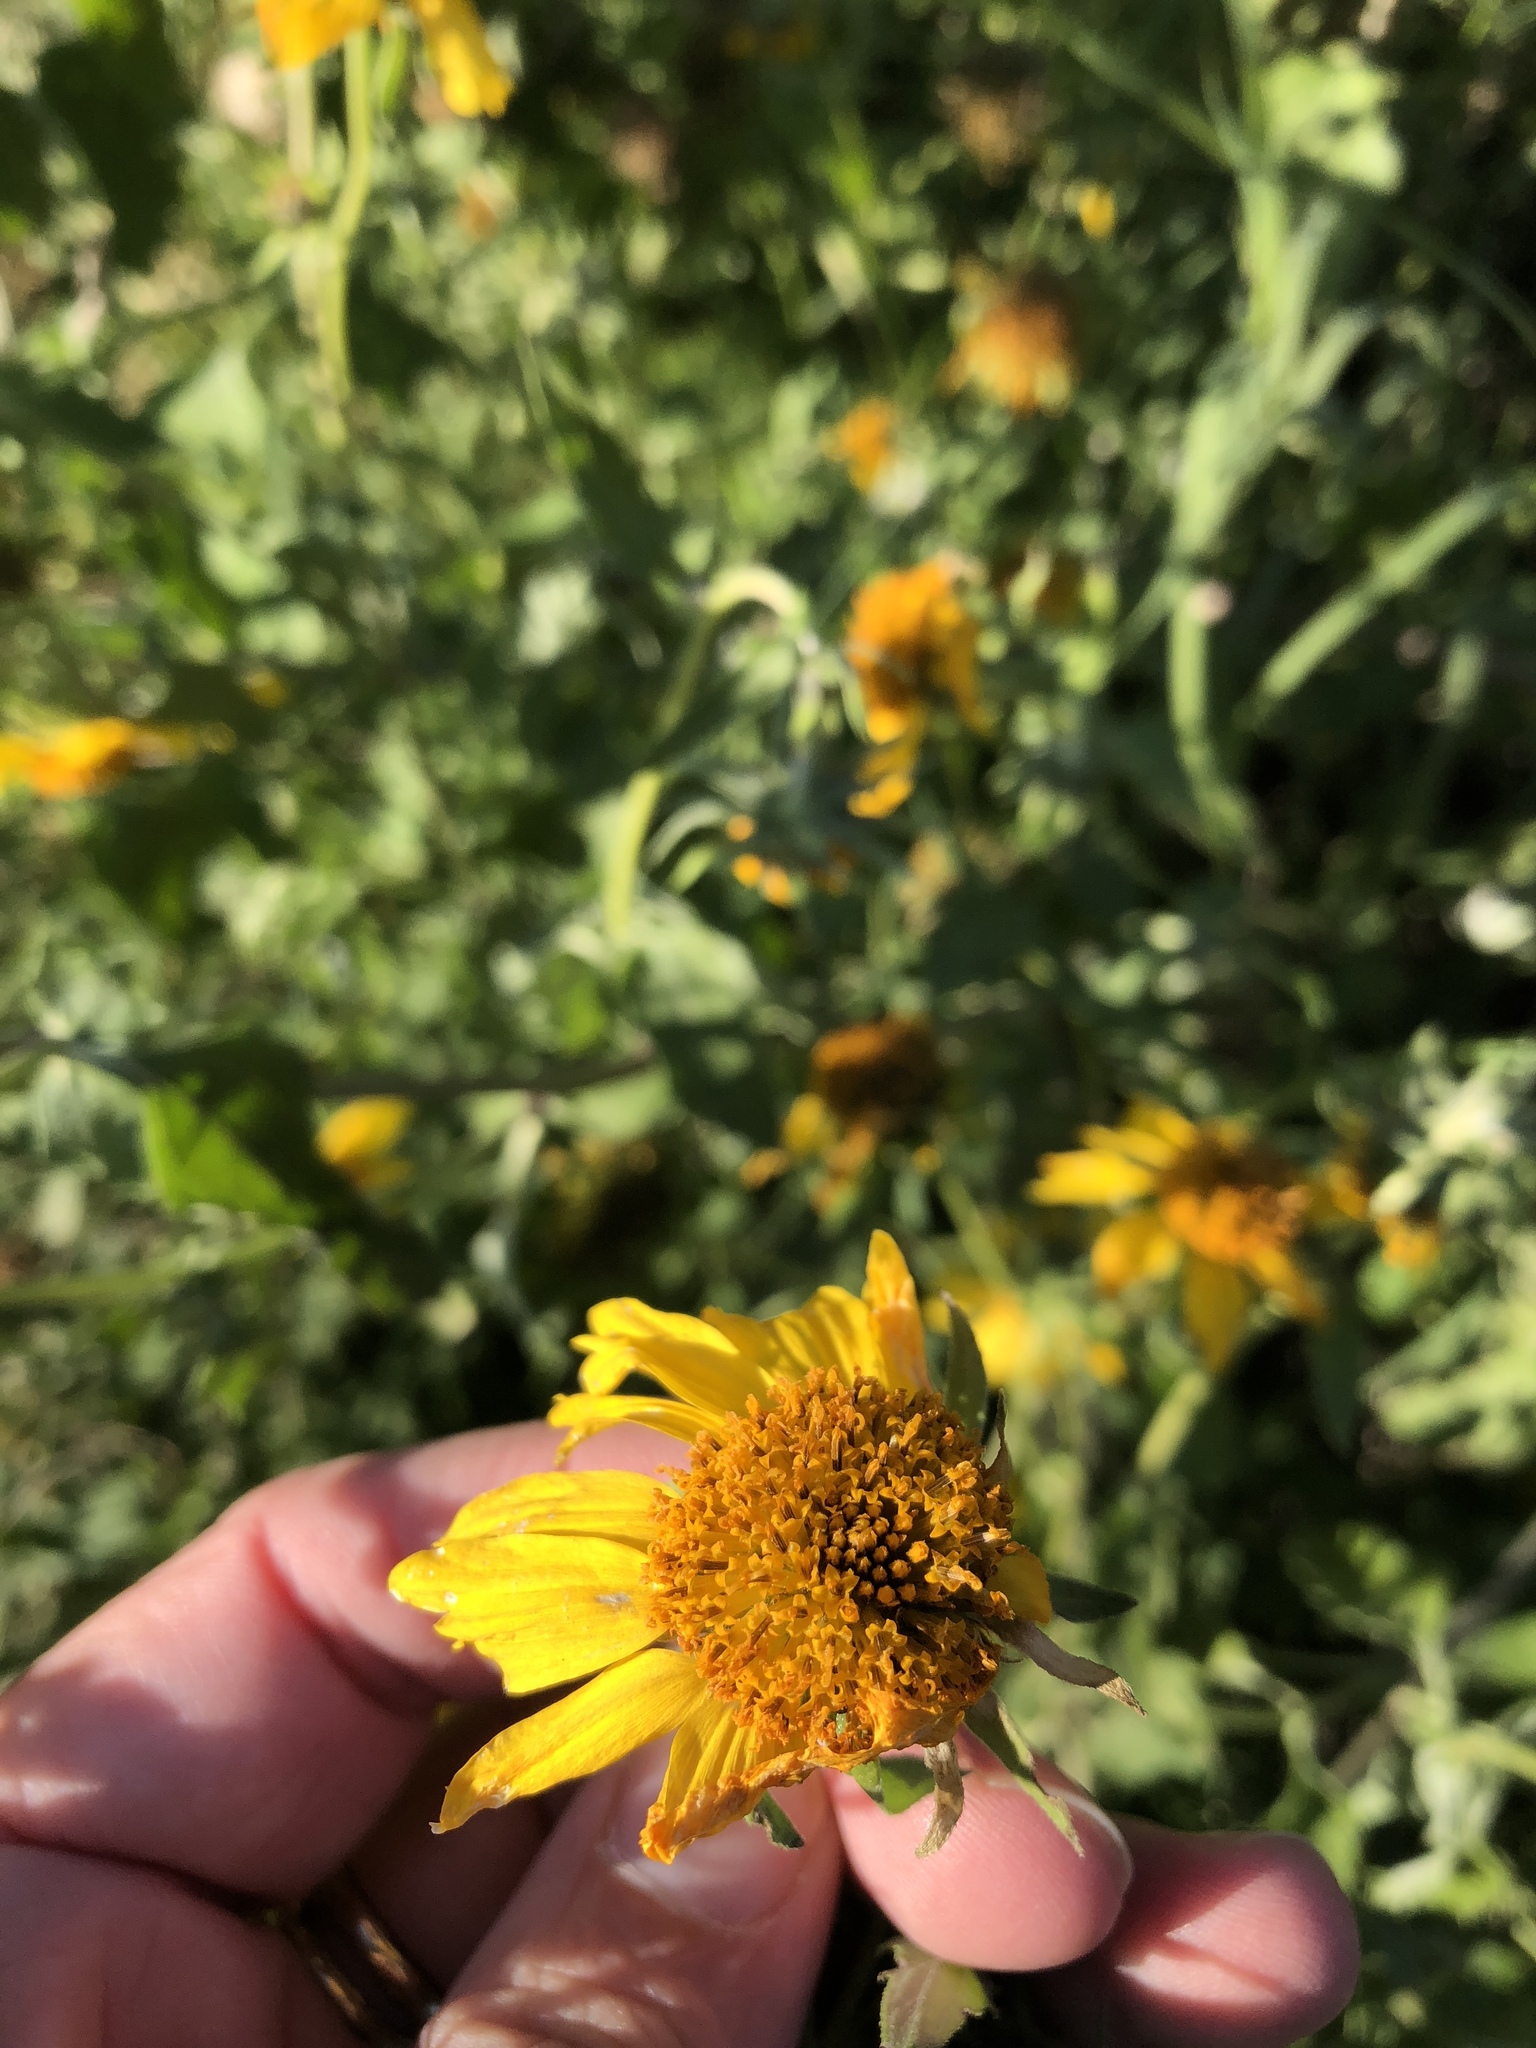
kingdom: Plantae
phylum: Tracheophyta
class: Magnoliopsida
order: Asterales
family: Asteraceae
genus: Verbesina
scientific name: Verbesina encelioides
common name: Golden crownbeard
